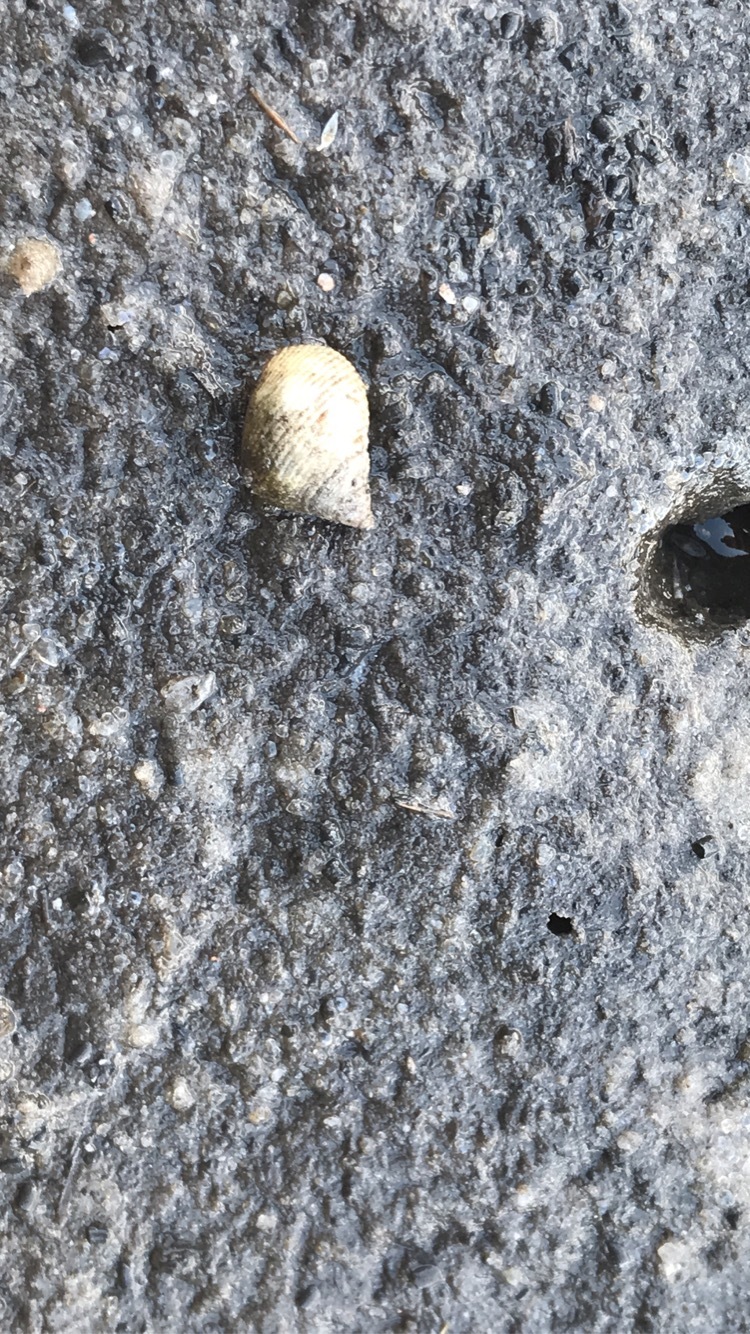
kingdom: Animalia
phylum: Mollusca
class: Gastropoda
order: Littorinimorpha
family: Littorinidae
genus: Littoraria
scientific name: Littoraria irrorata
